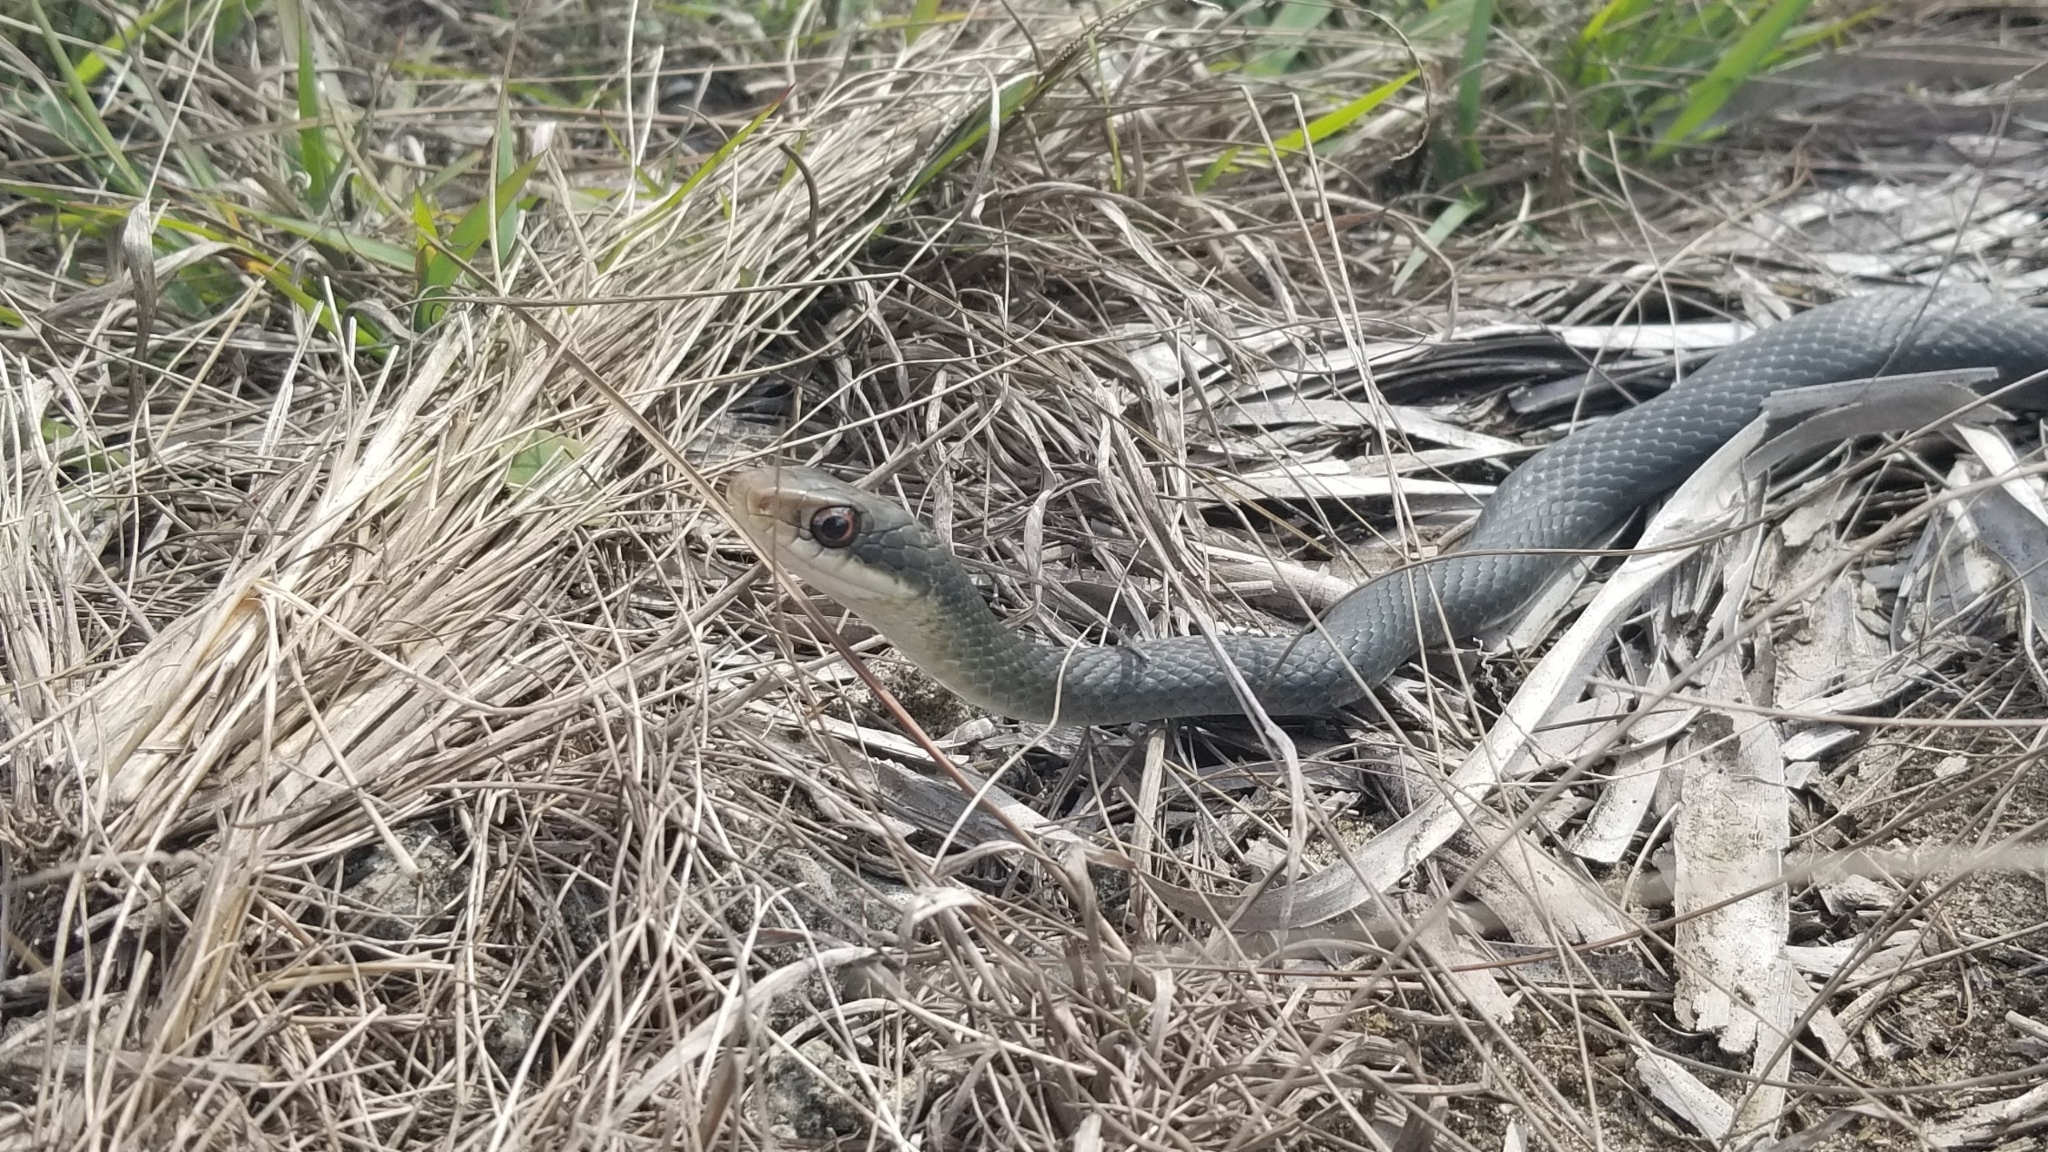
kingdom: Animalia
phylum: Chordata
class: Squamata
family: Colubridae
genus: Coluber
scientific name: Coluber constrictor
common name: Eastern racer
